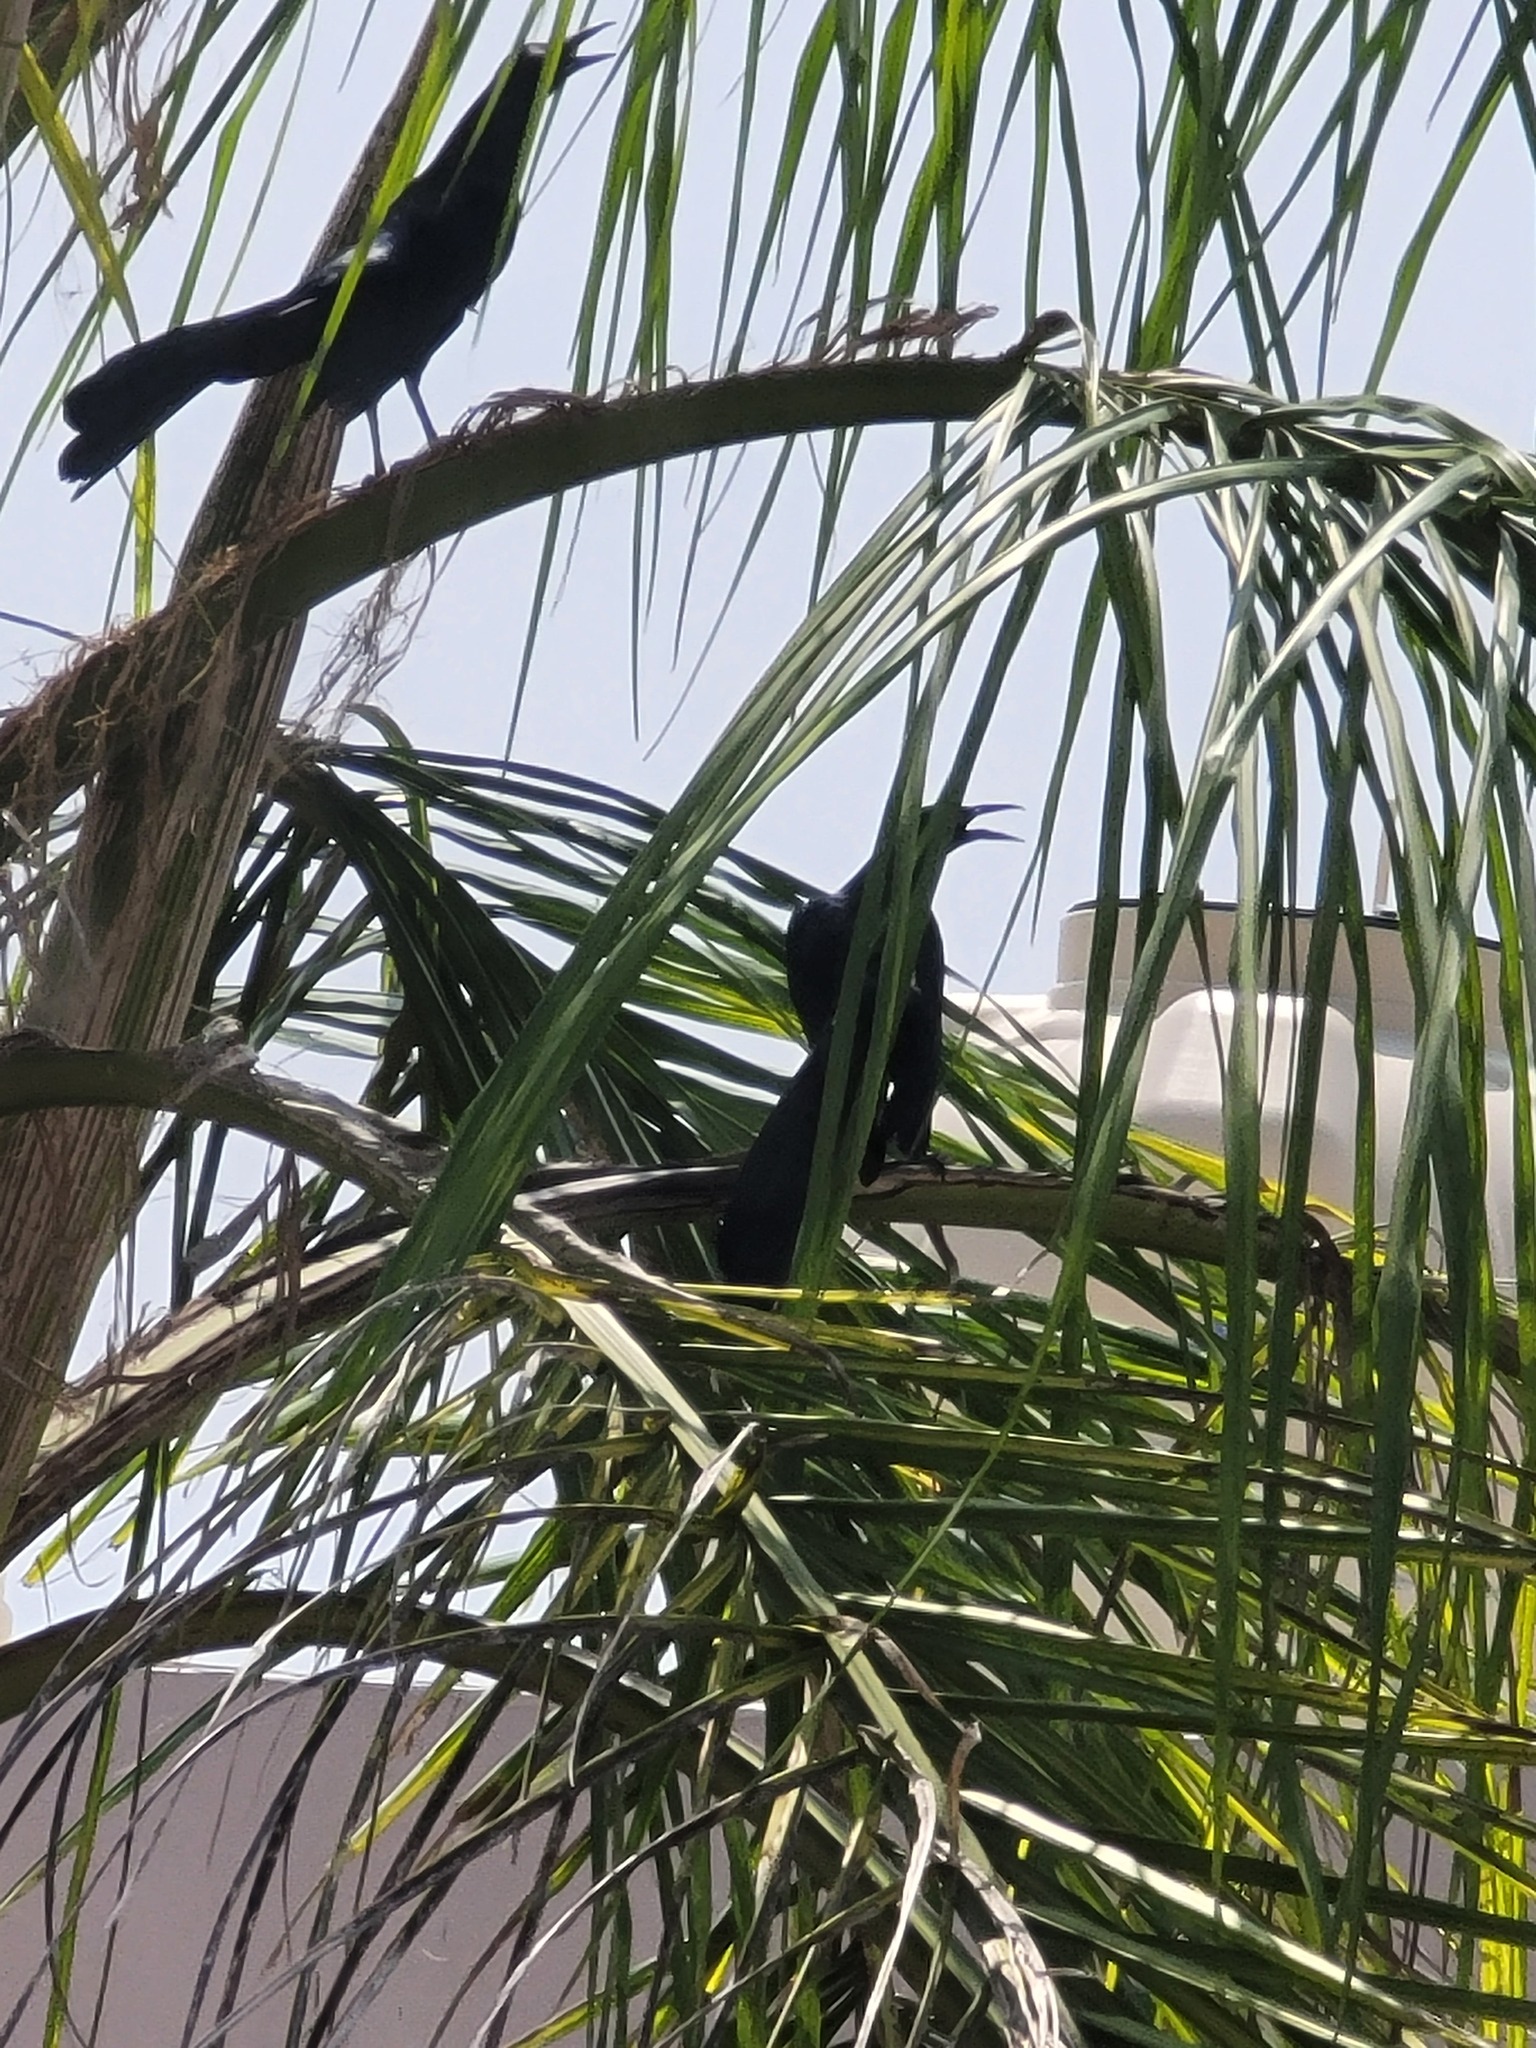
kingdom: Animalia
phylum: Chordata
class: Aves
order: Passeriformes
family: Icteridae
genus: Quiscalus
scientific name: Quiscalus mexicanus
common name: Great-tailed grackle
